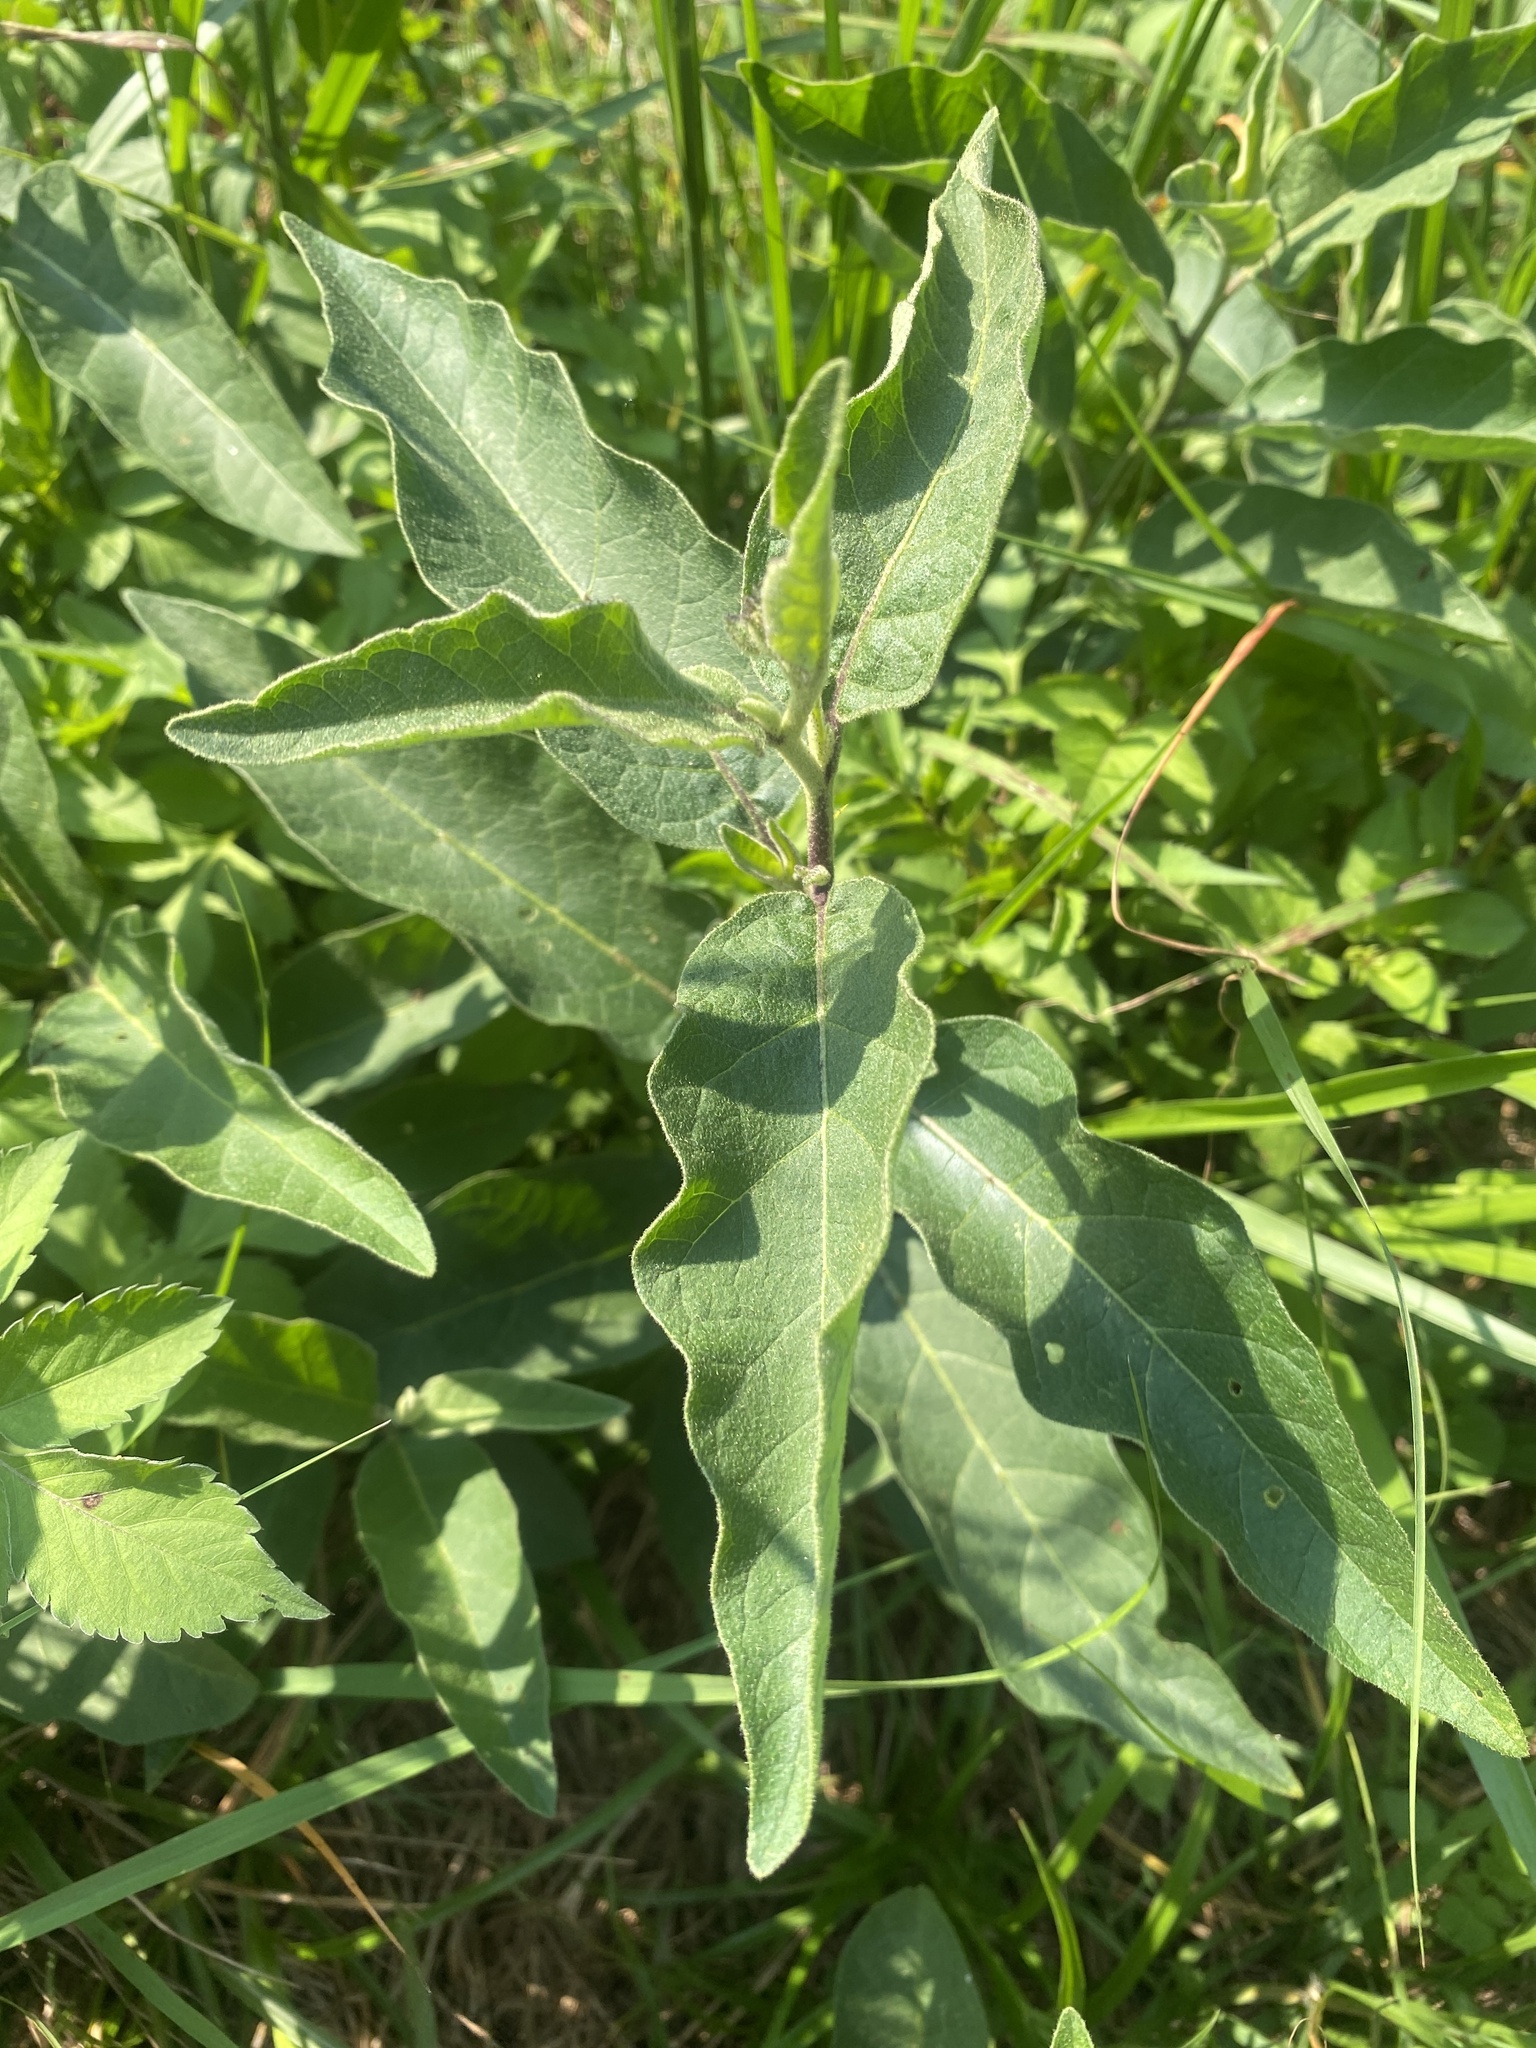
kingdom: Plantae
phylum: Tracheophyta
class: Magnoliopsida
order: Solanales
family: Solanaceae
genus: Solanum
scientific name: Solanum campylacanthum
